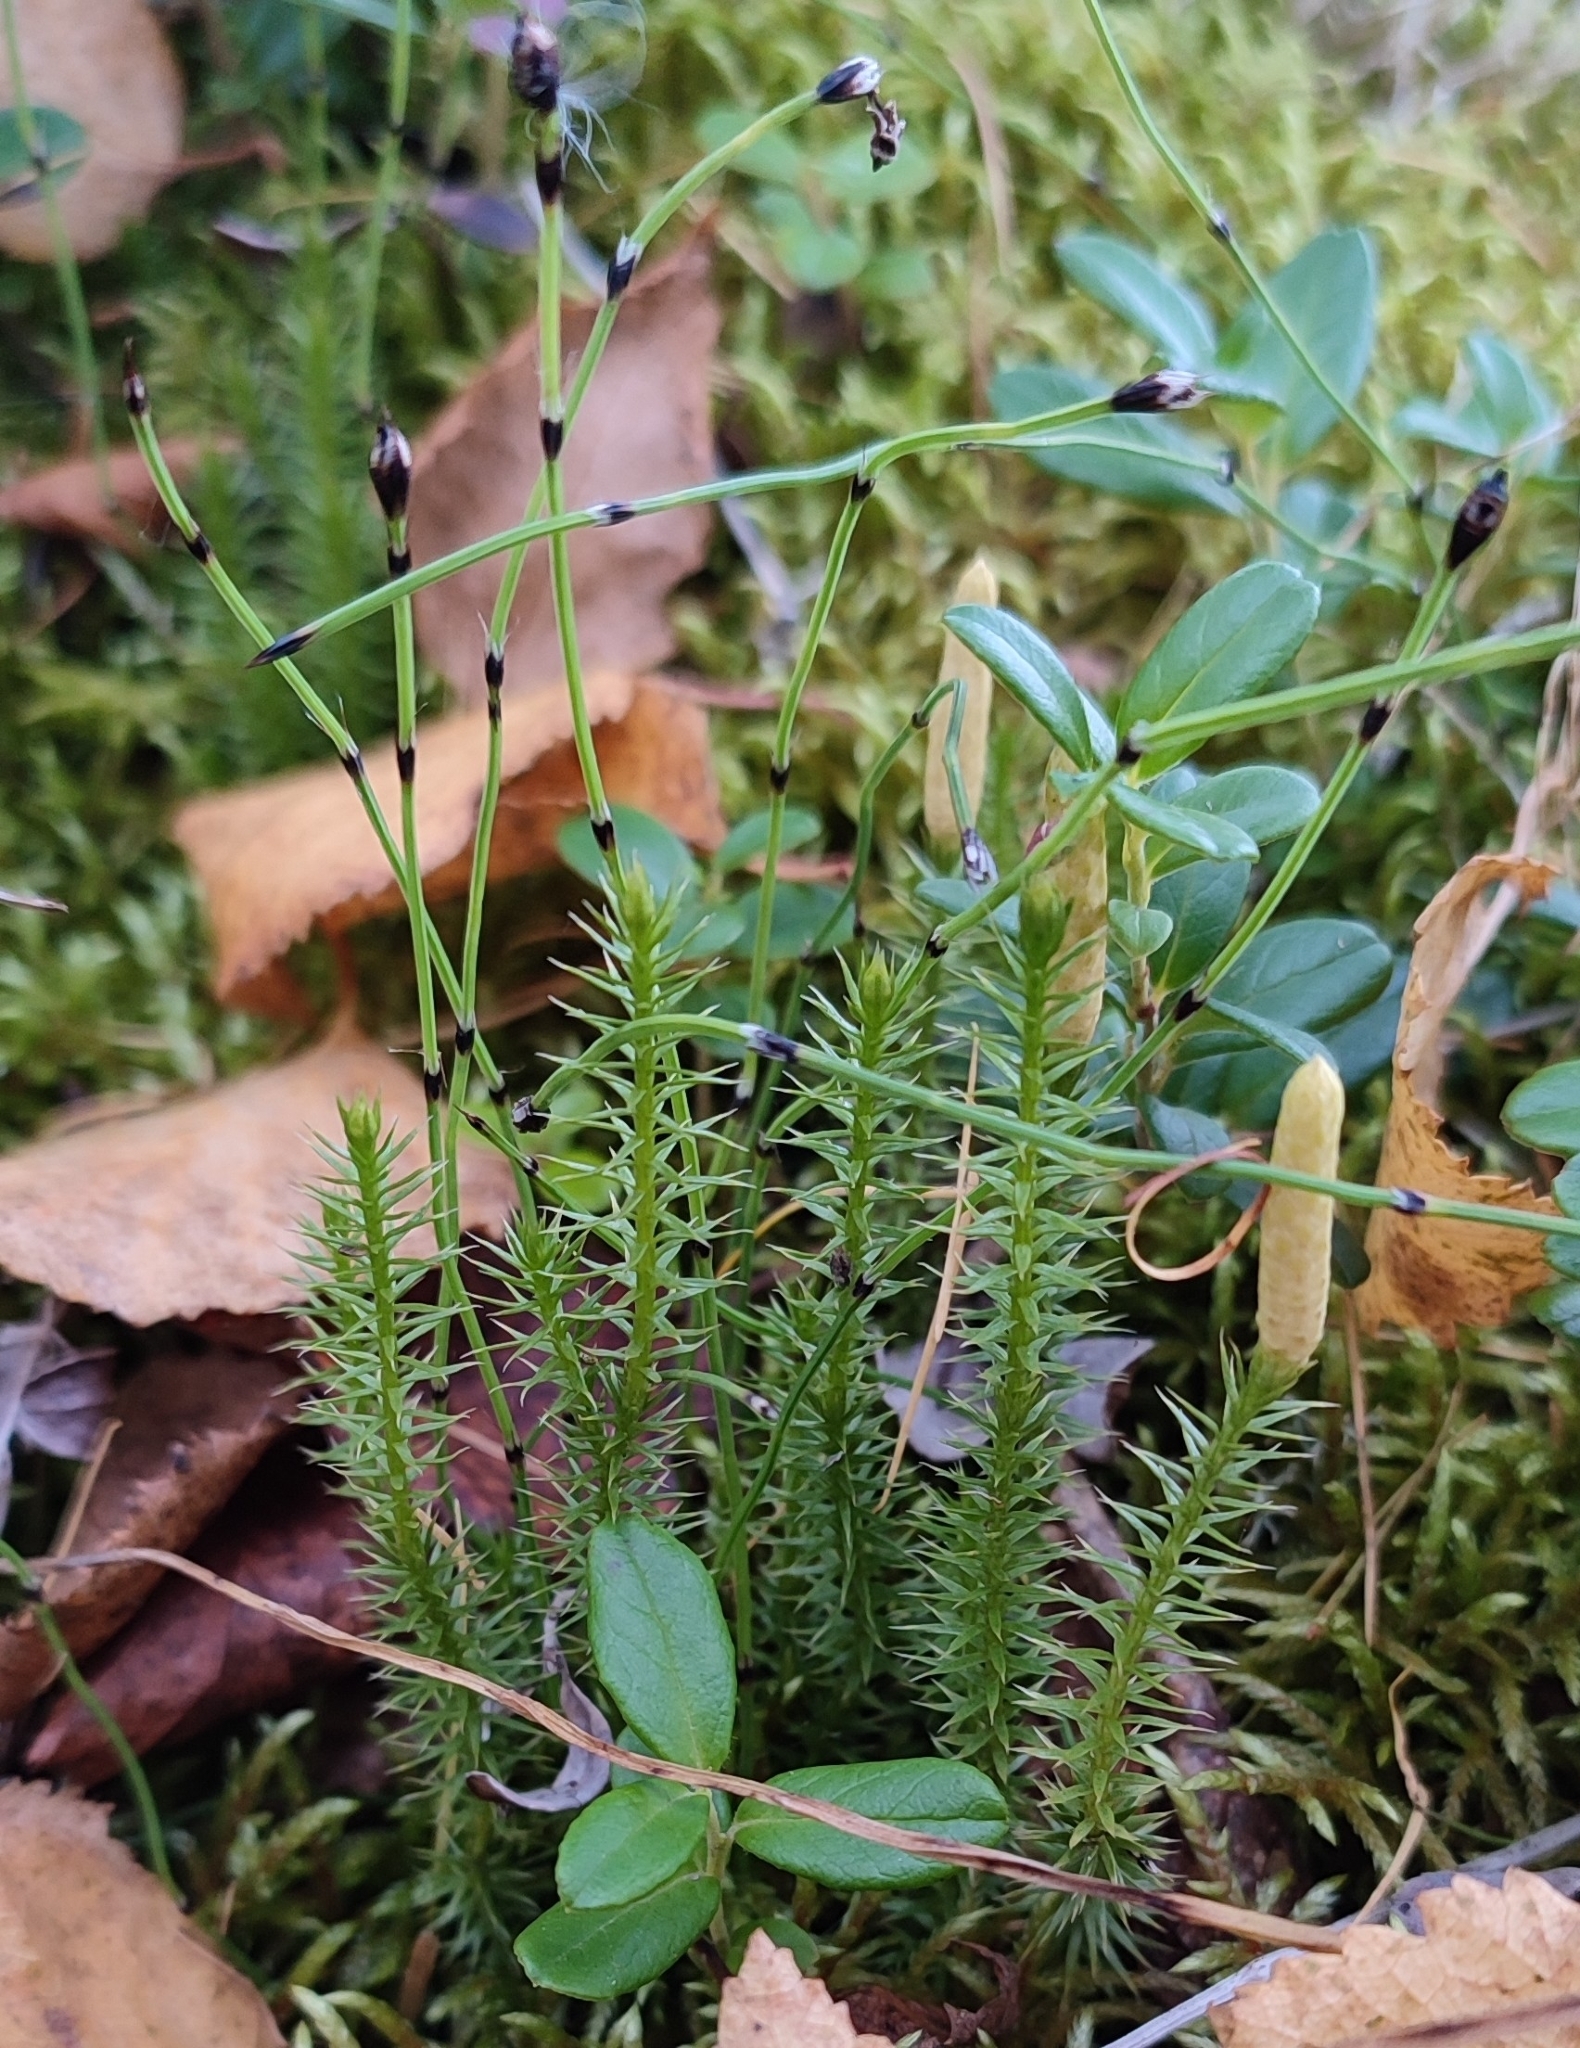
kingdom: Plantae
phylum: Tracheophyta
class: Lycopodiopsida
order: Lycopodiales
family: Lycopodiaceae
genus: Spinulum
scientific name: Spinulum annotinum
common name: Interrupted club-moss
